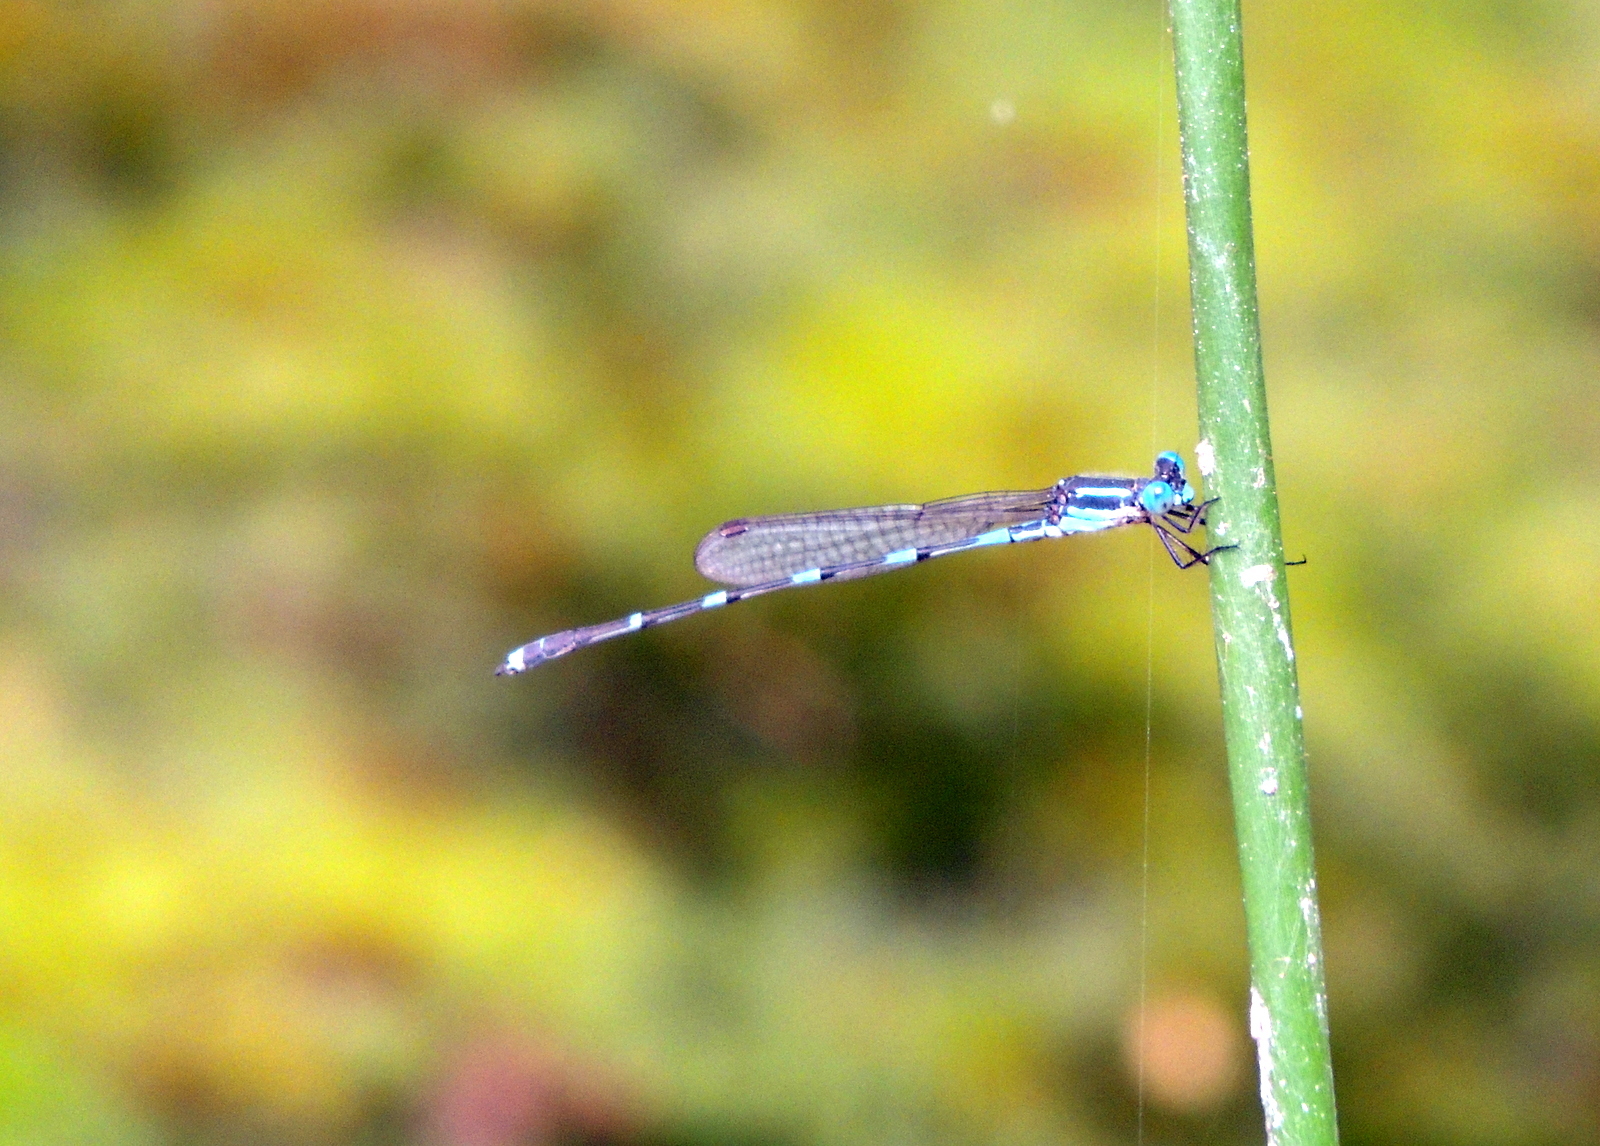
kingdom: Animalia
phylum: Arthropoda
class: Insecta
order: Odonata
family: Lestidae
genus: Austrolestes
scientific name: Austrolestes leda
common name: Wandering ringtail
